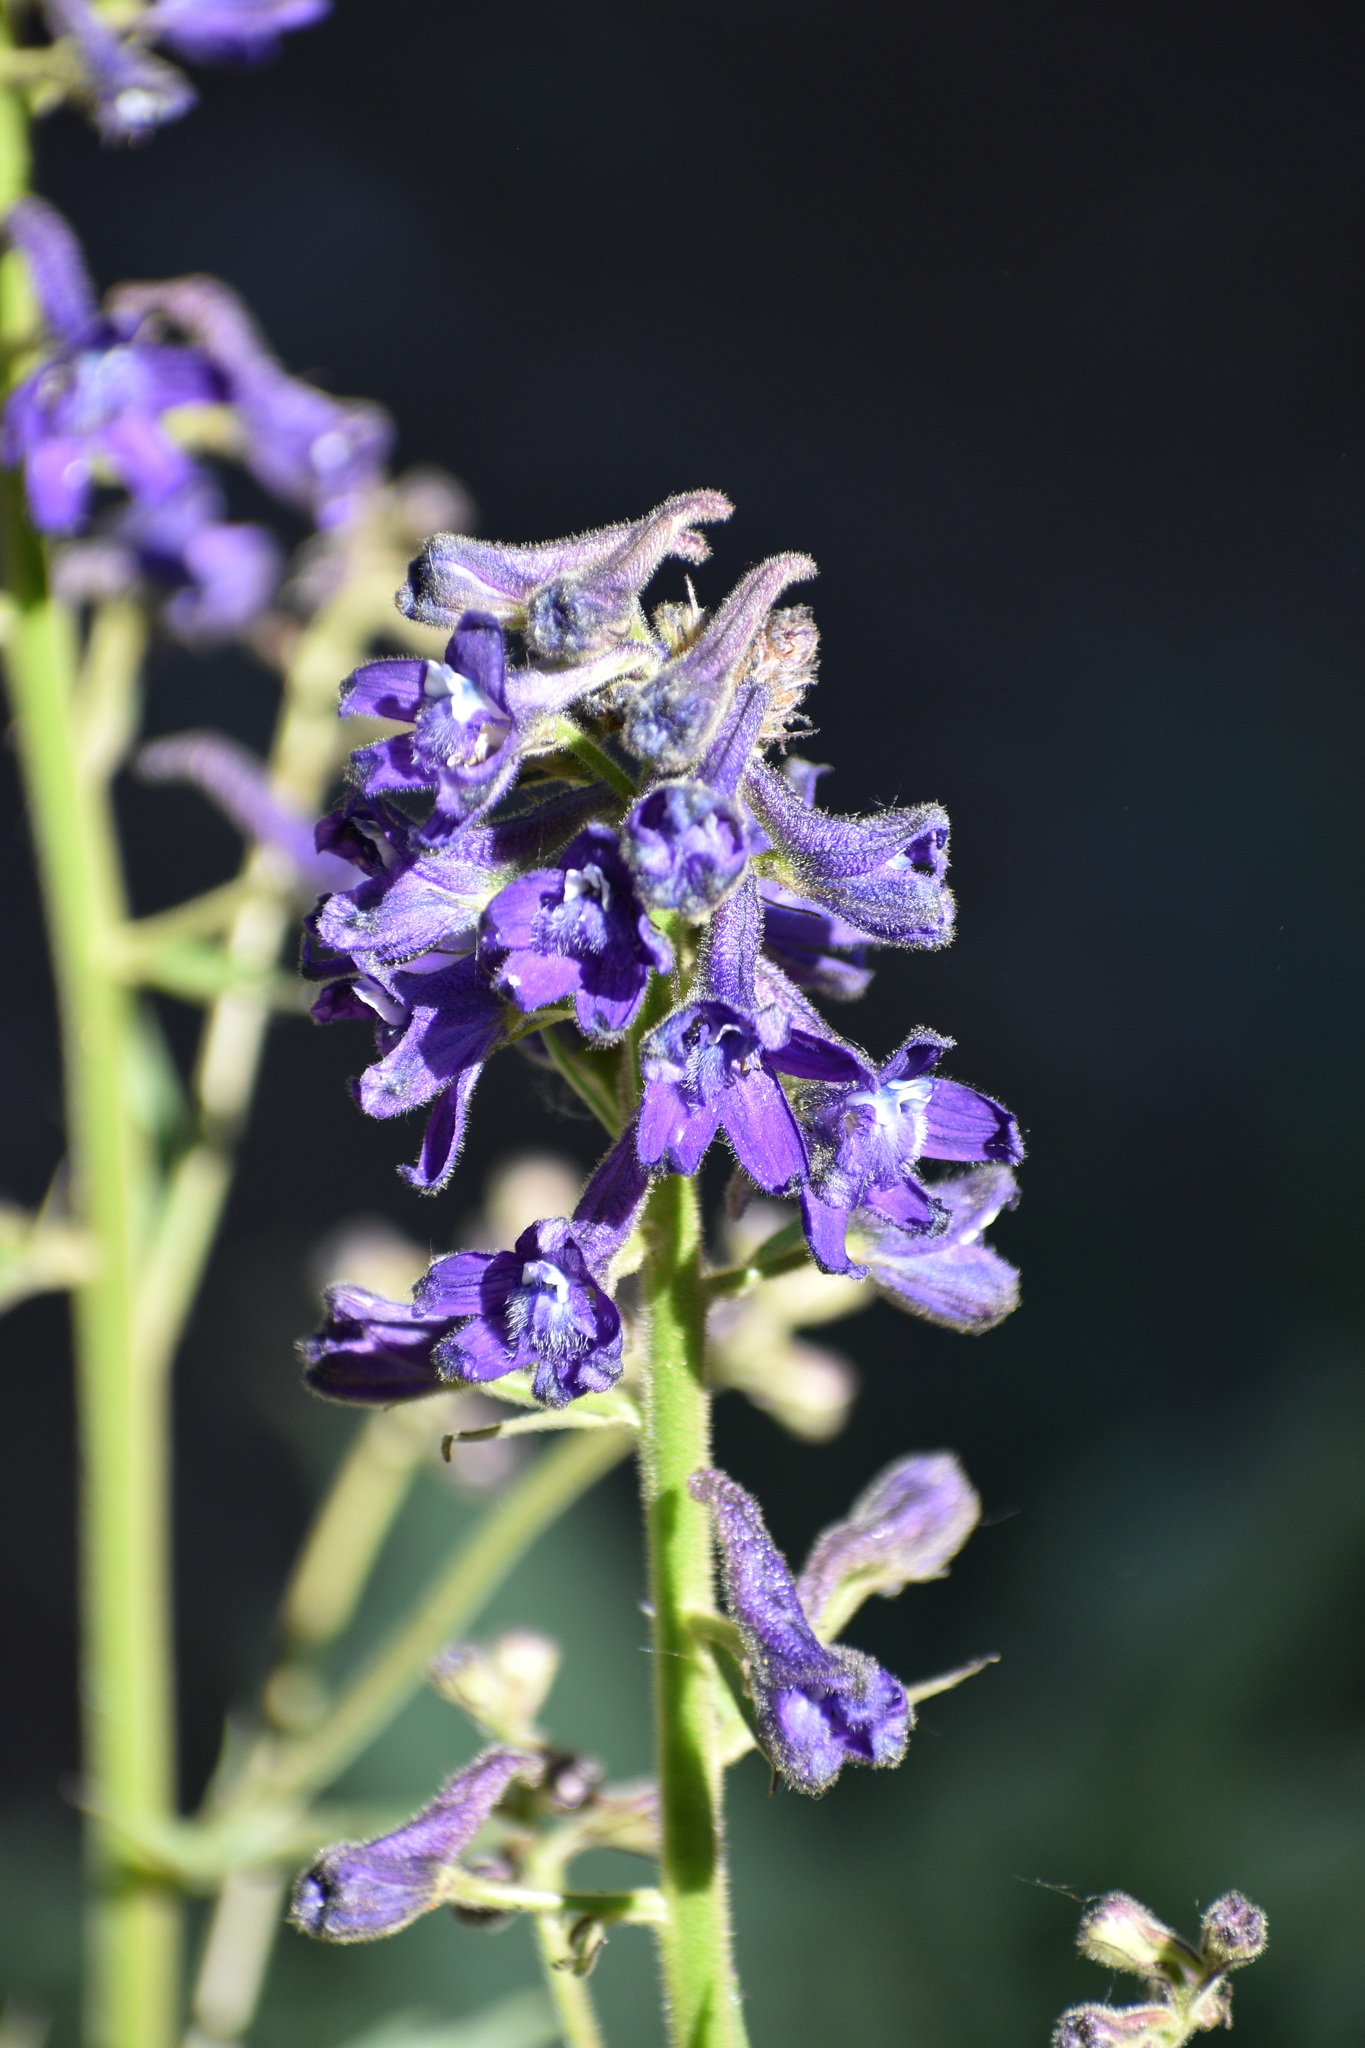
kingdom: Plantae
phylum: Tracheophyta
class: Magnoliopsida
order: Ranunculales
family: Ranunculaceae
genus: Delphinium
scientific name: Delphinium barbeyi
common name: Subalpine larkspur
